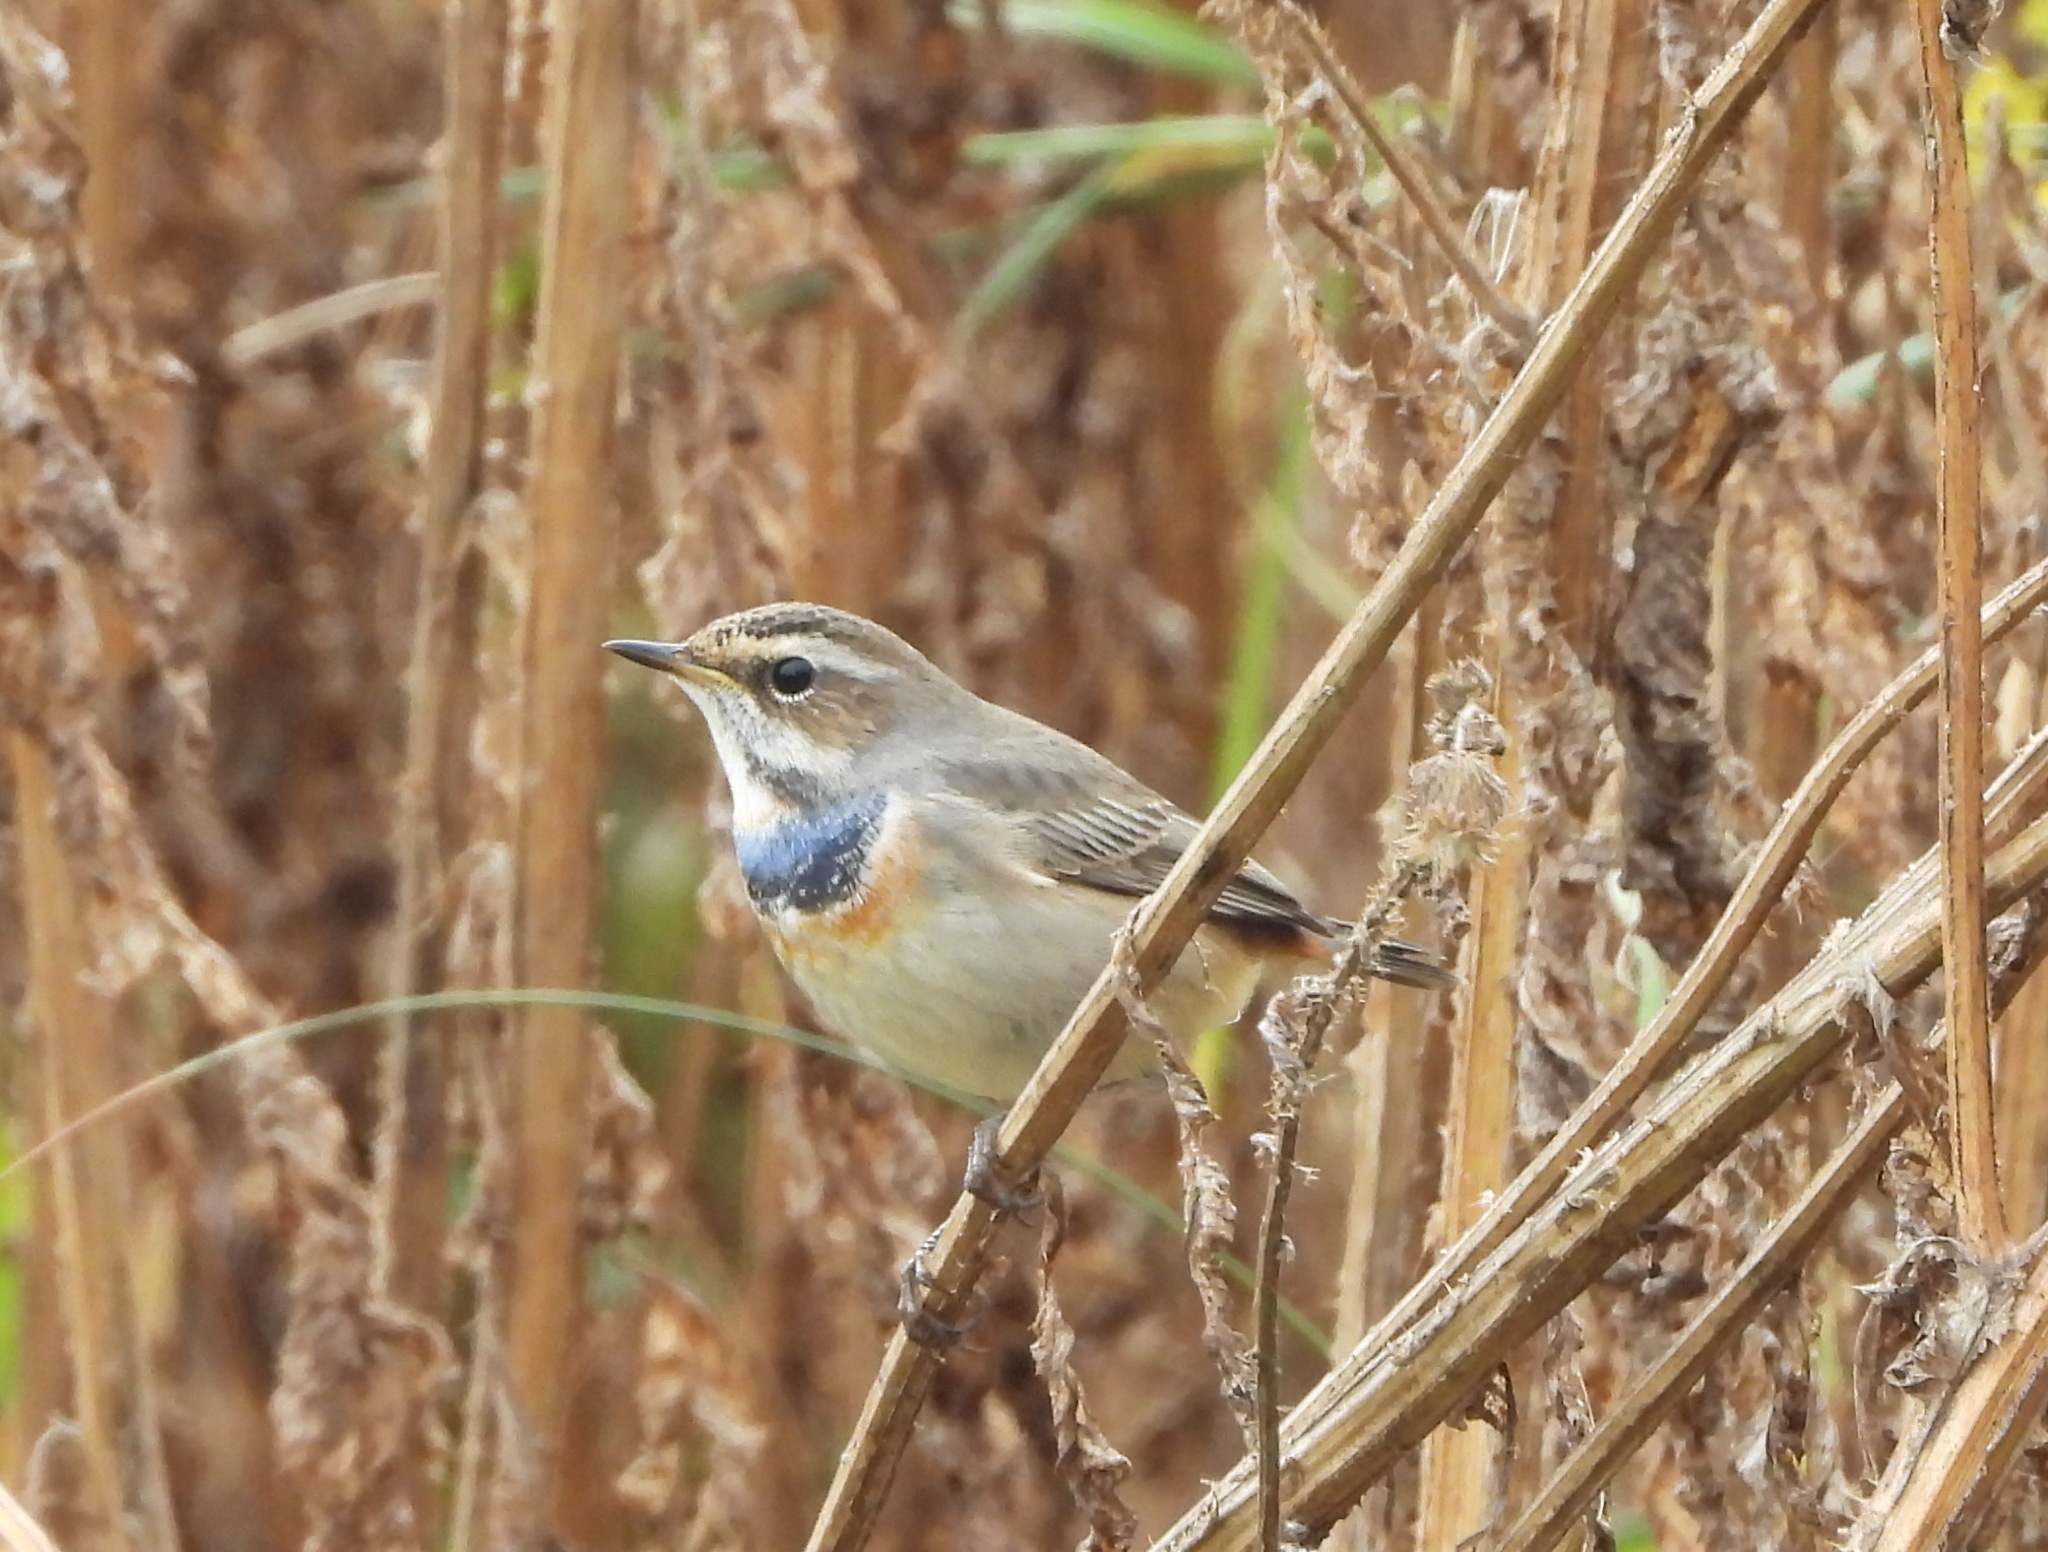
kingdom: Animalia
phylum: Chordata
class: Aves
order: Passeriformes
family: Muscicapidae
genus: Luscinia
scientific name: Luscinia svecica
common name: Bluethroat
